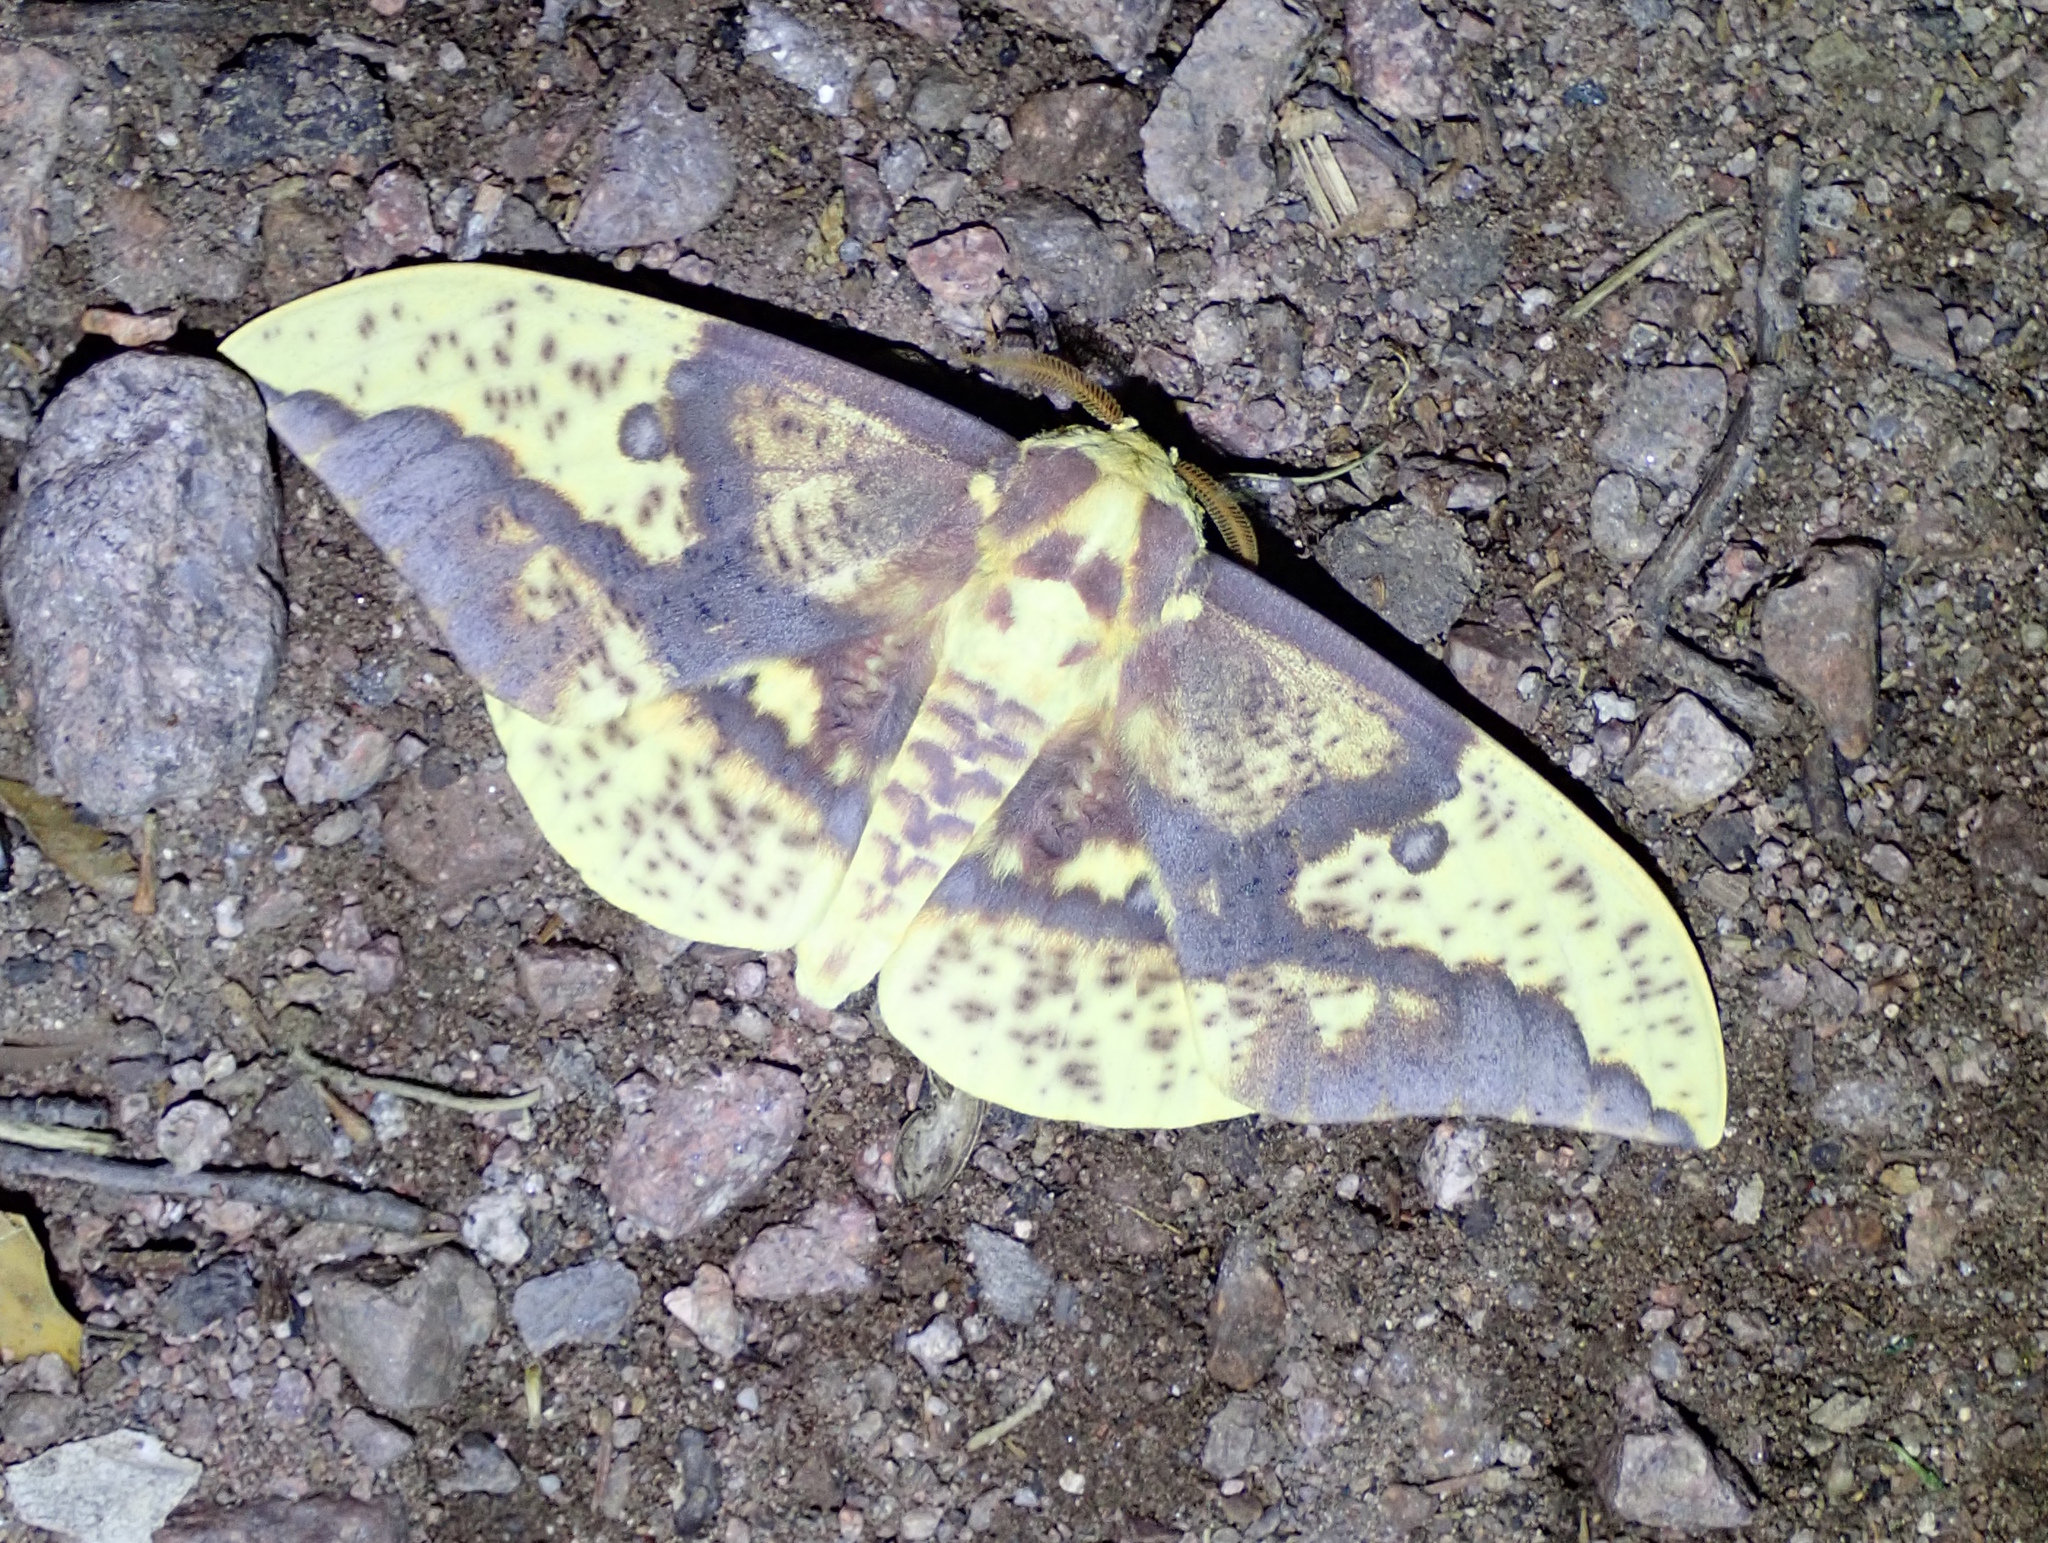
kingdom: Animalia
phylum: Arthropoda
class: Insecta
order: Lepidoptera
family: Saturniidae
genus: Eacles
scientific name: Eacles oslari
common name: Oslar's imperial moth
